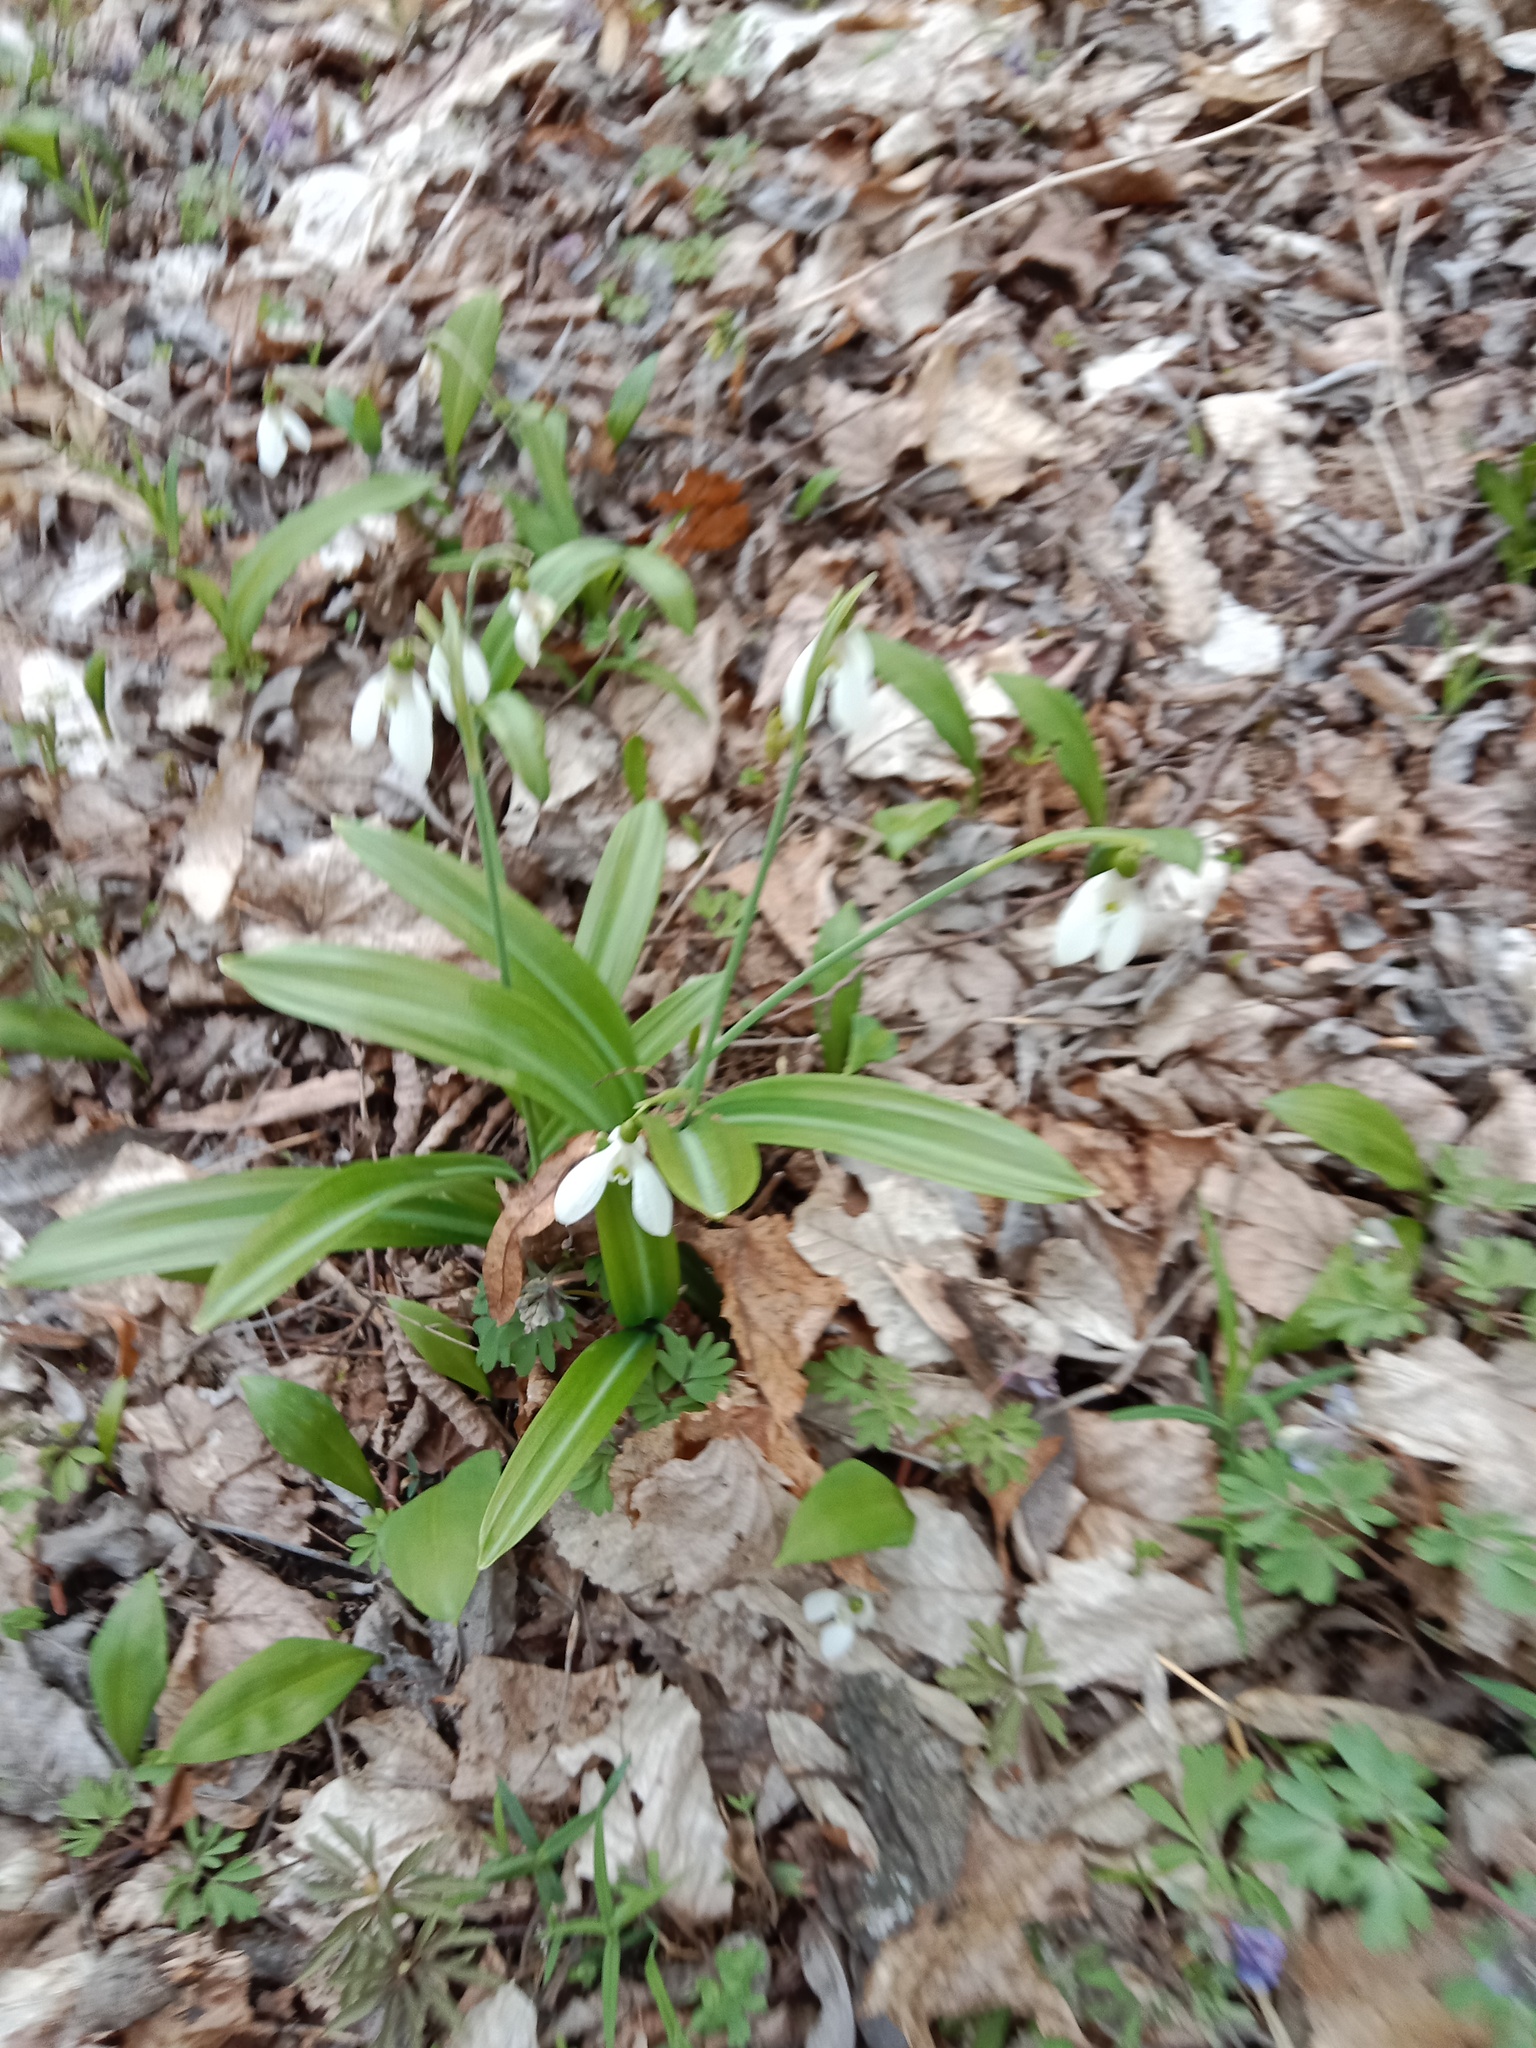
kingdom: Plantae
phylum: Tracheophyta
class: Liliopsida
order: Asparagales
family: Amaryllidaceae
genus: Galanthus
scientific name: Galanthus plicatus
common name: Pleated snowdrop
